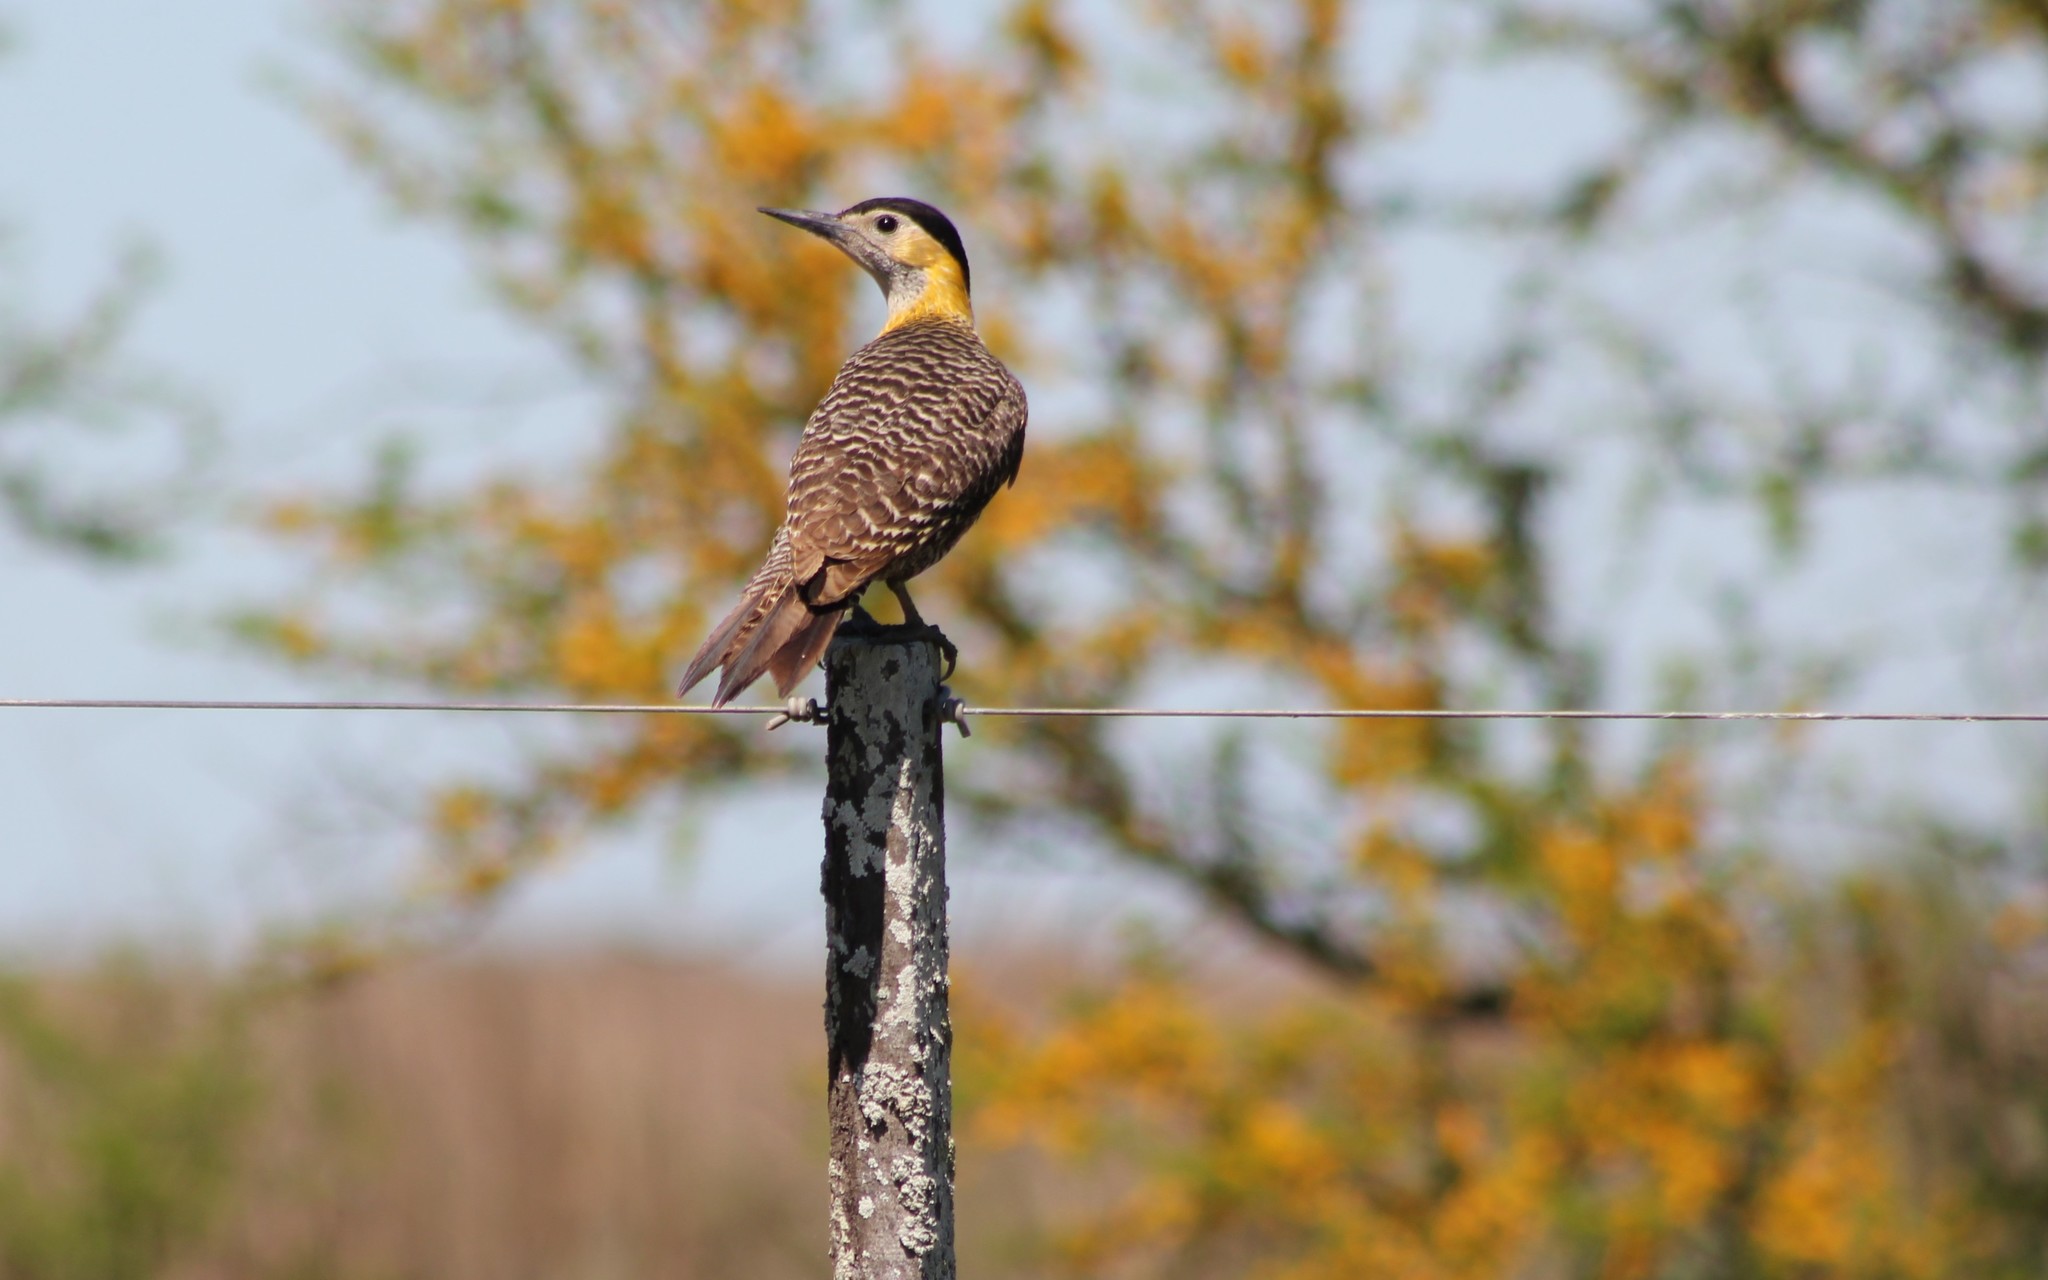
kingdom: Animalia
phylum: Chordata
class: Aves
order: Piciformes
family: Picidae
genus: Colaptes
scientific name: Colaptes campestris
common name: Campo flicker
